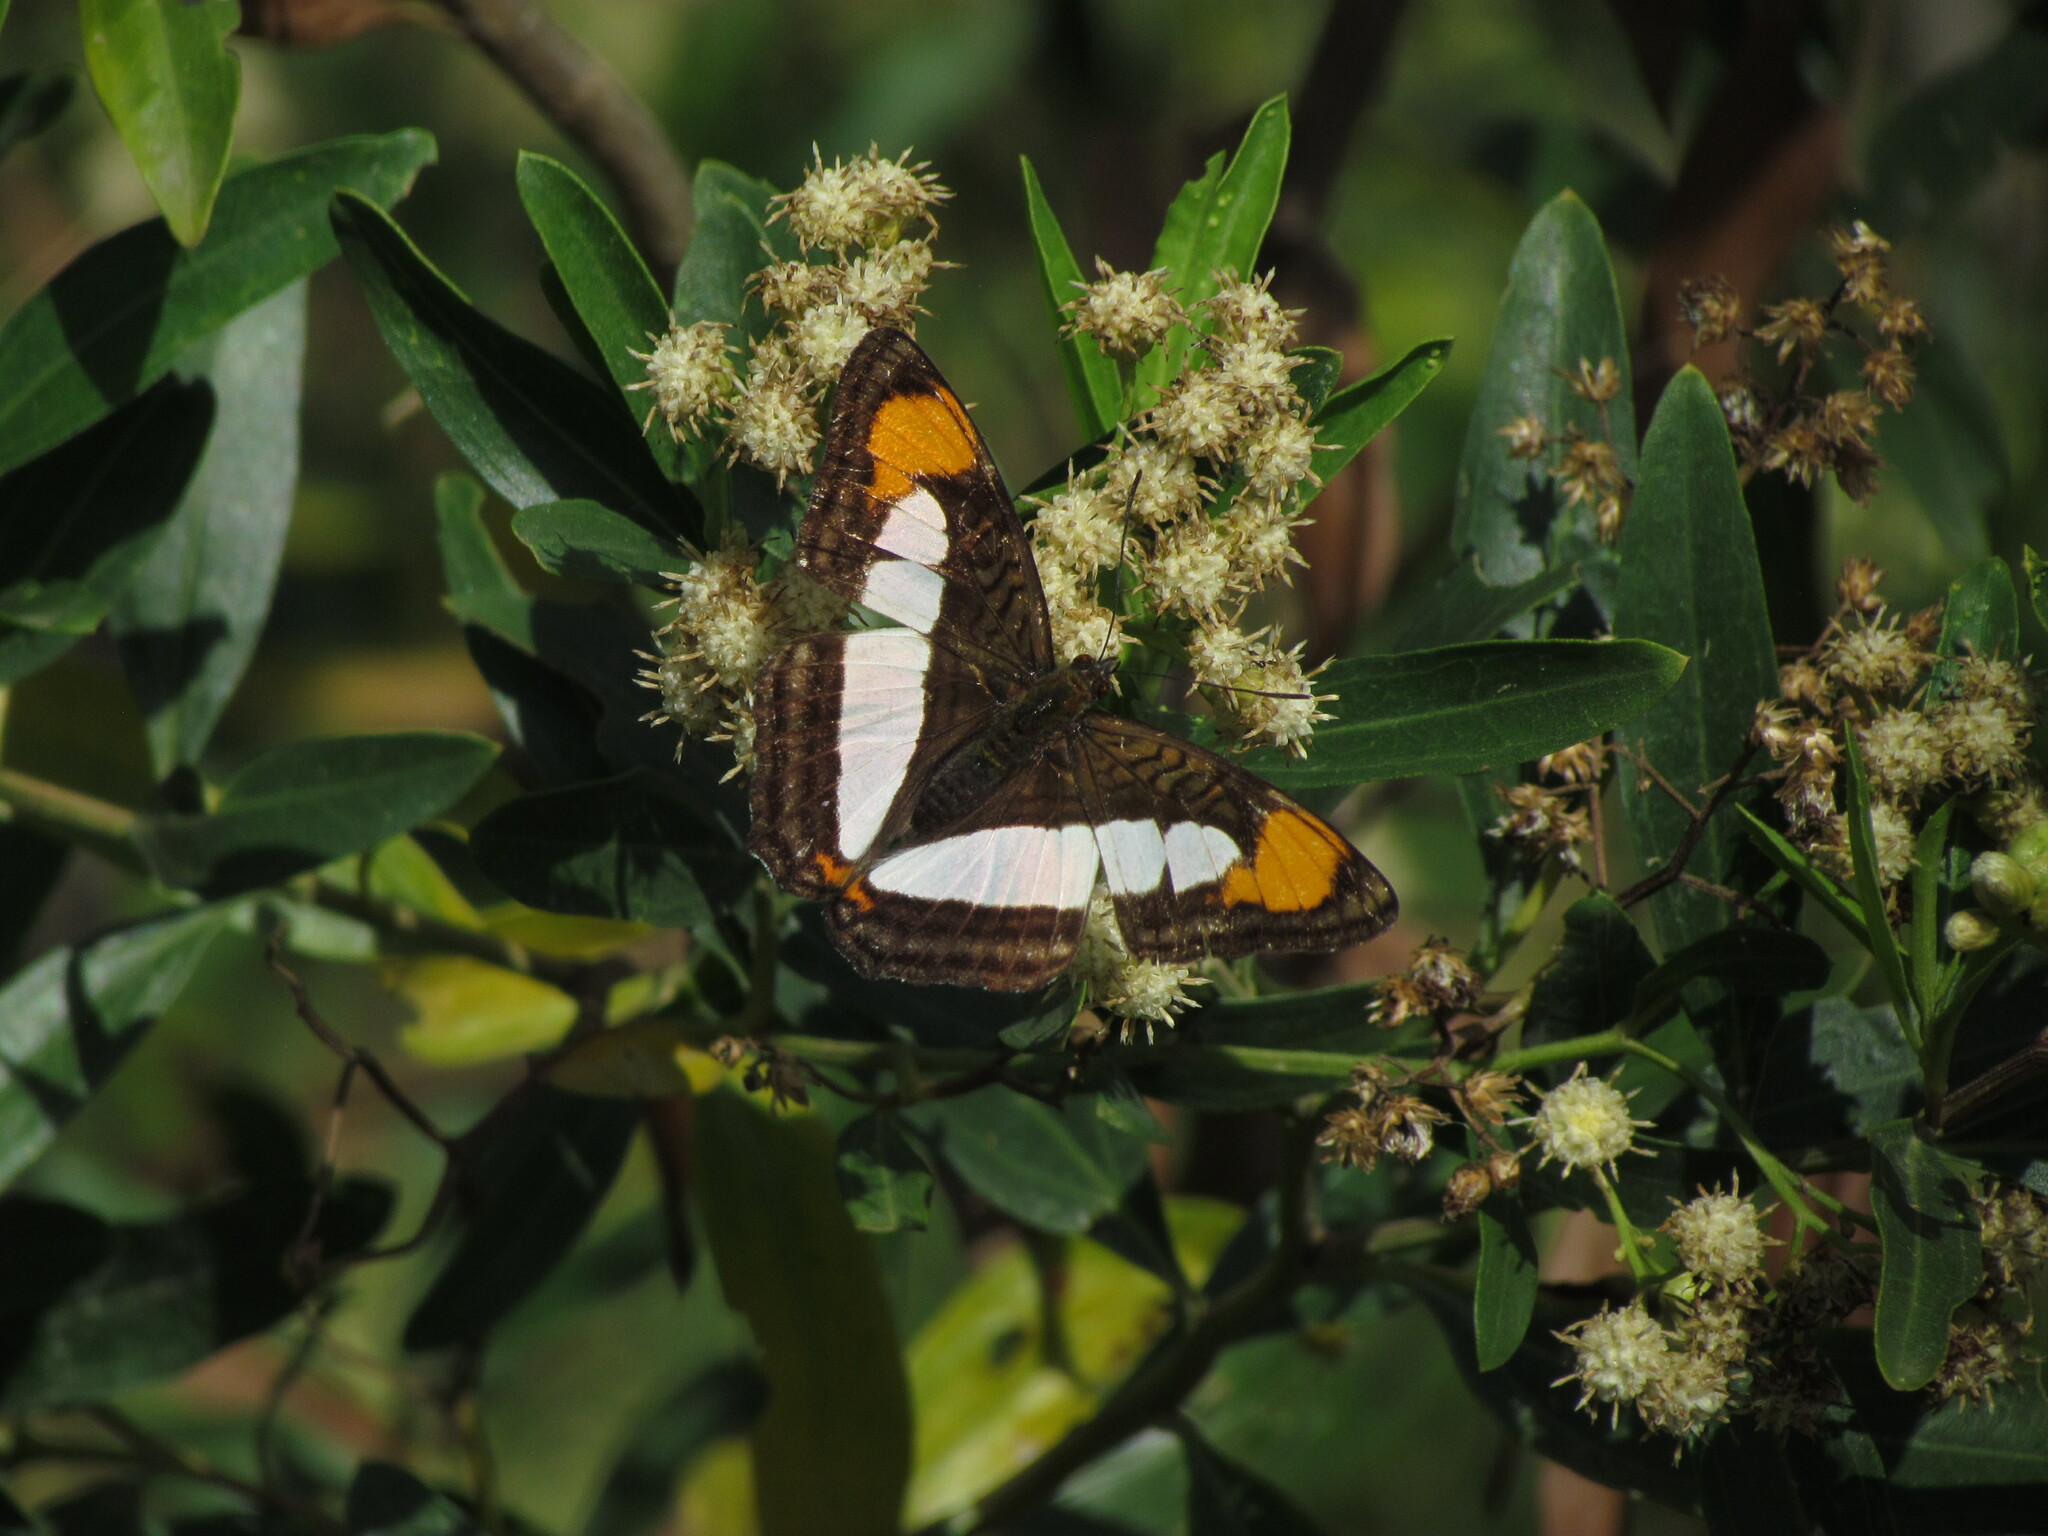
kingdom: Animalia
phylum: Arthropoda
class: Insecta
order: Lepidoptera
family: Nymphalidae
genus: Limenitis
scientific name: Limenitis zea
